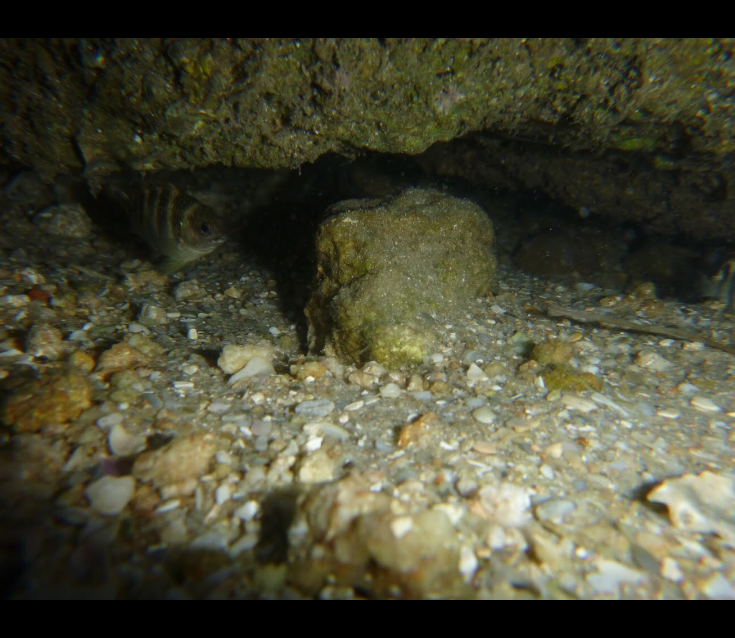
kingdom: Animalia
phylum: Chordata
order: Perciformes
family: Pomacentridae
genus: Abudefduf
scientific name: Abudefduf taurus
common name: Night sergeant
